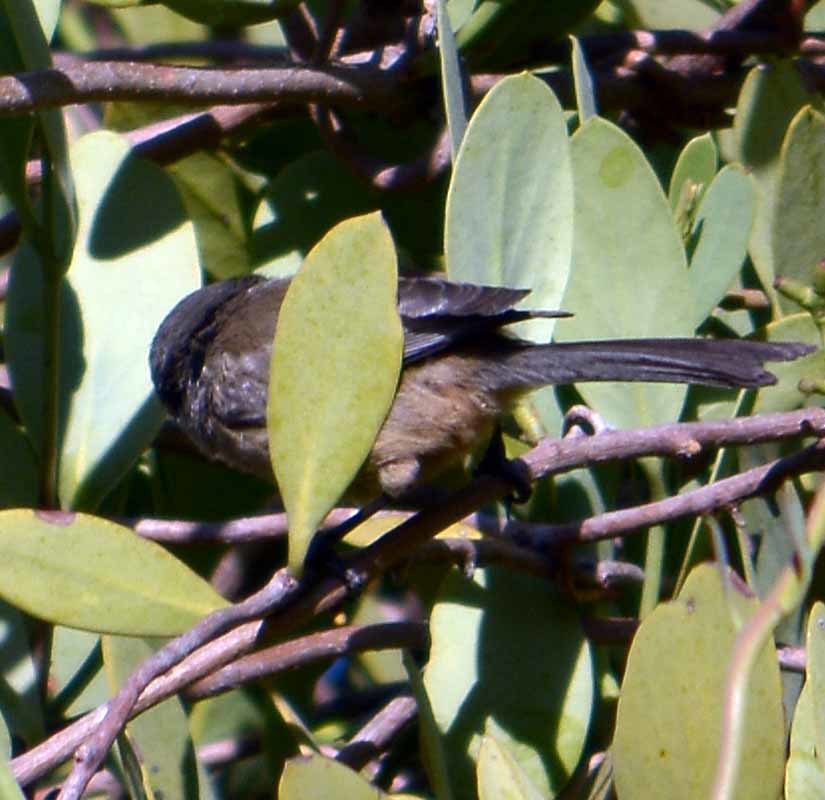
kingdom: Animalia
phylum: Chordata
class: Aves
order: Passeriformes
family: Aegithalidae
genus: Psaltriparus
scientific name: Psaltriparus minimus
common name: American bushtit
